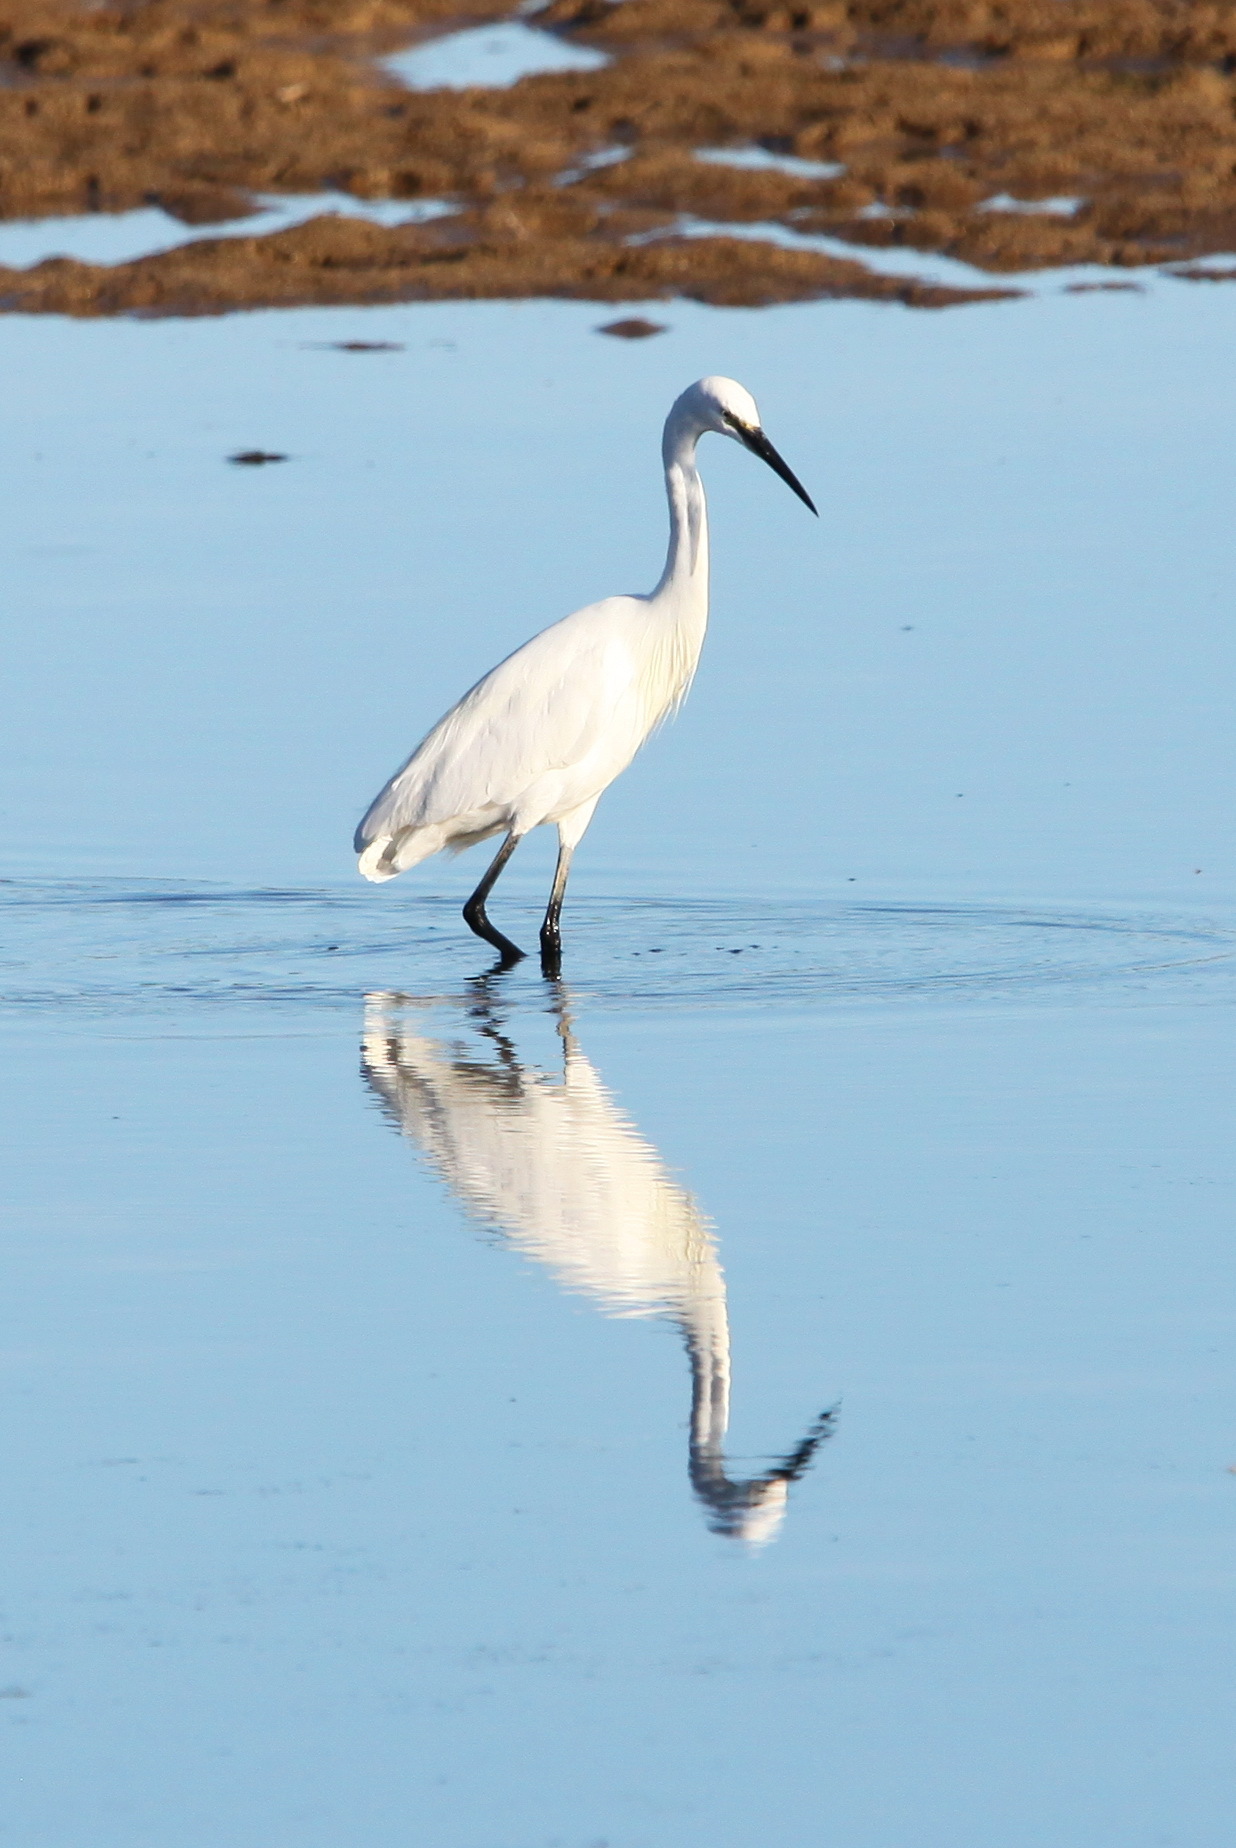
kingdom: Animalia
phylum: Chordata
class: Aves
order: Pelecaniformes
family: Ardeidae
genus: Egretta
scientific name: Egretta garzetta
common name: Little egret
